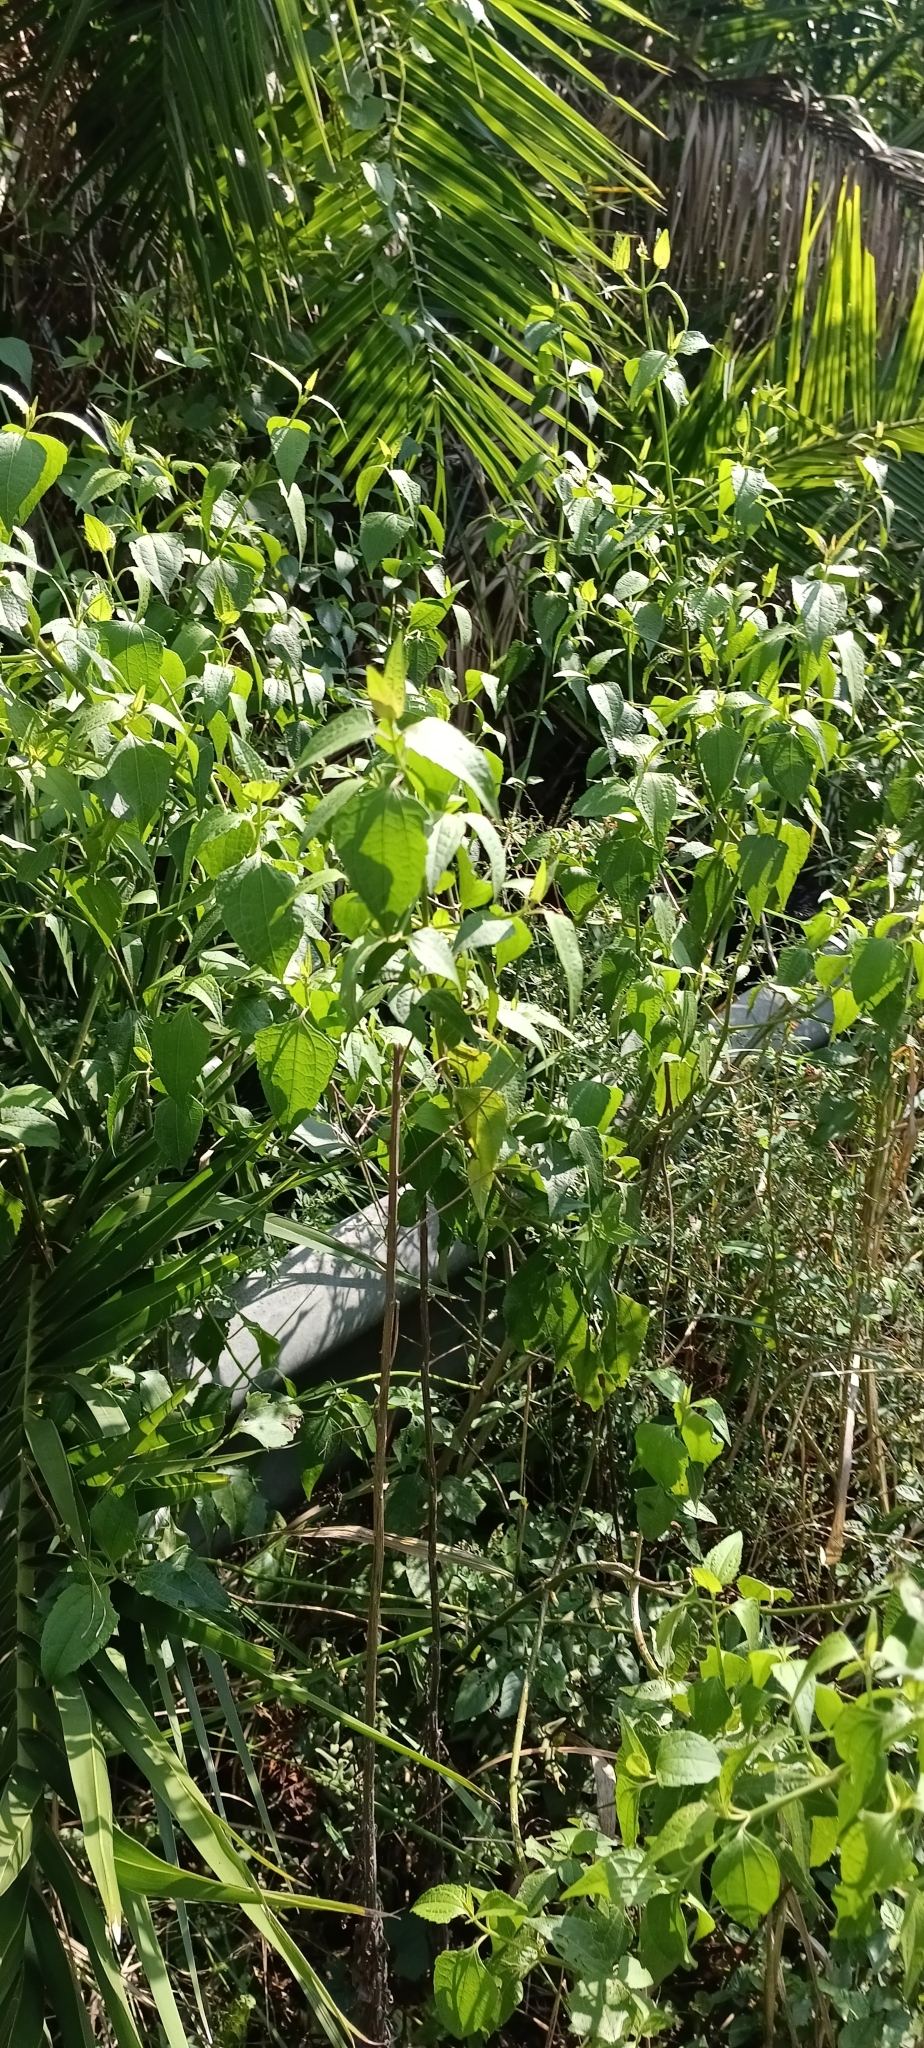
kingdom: Plantae
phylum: Tracheophyta
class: Magnoliopsida
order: Asterales
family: Asteraceae
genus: Chromolaena
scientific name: Chromolaena odorata
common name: Siamweed
